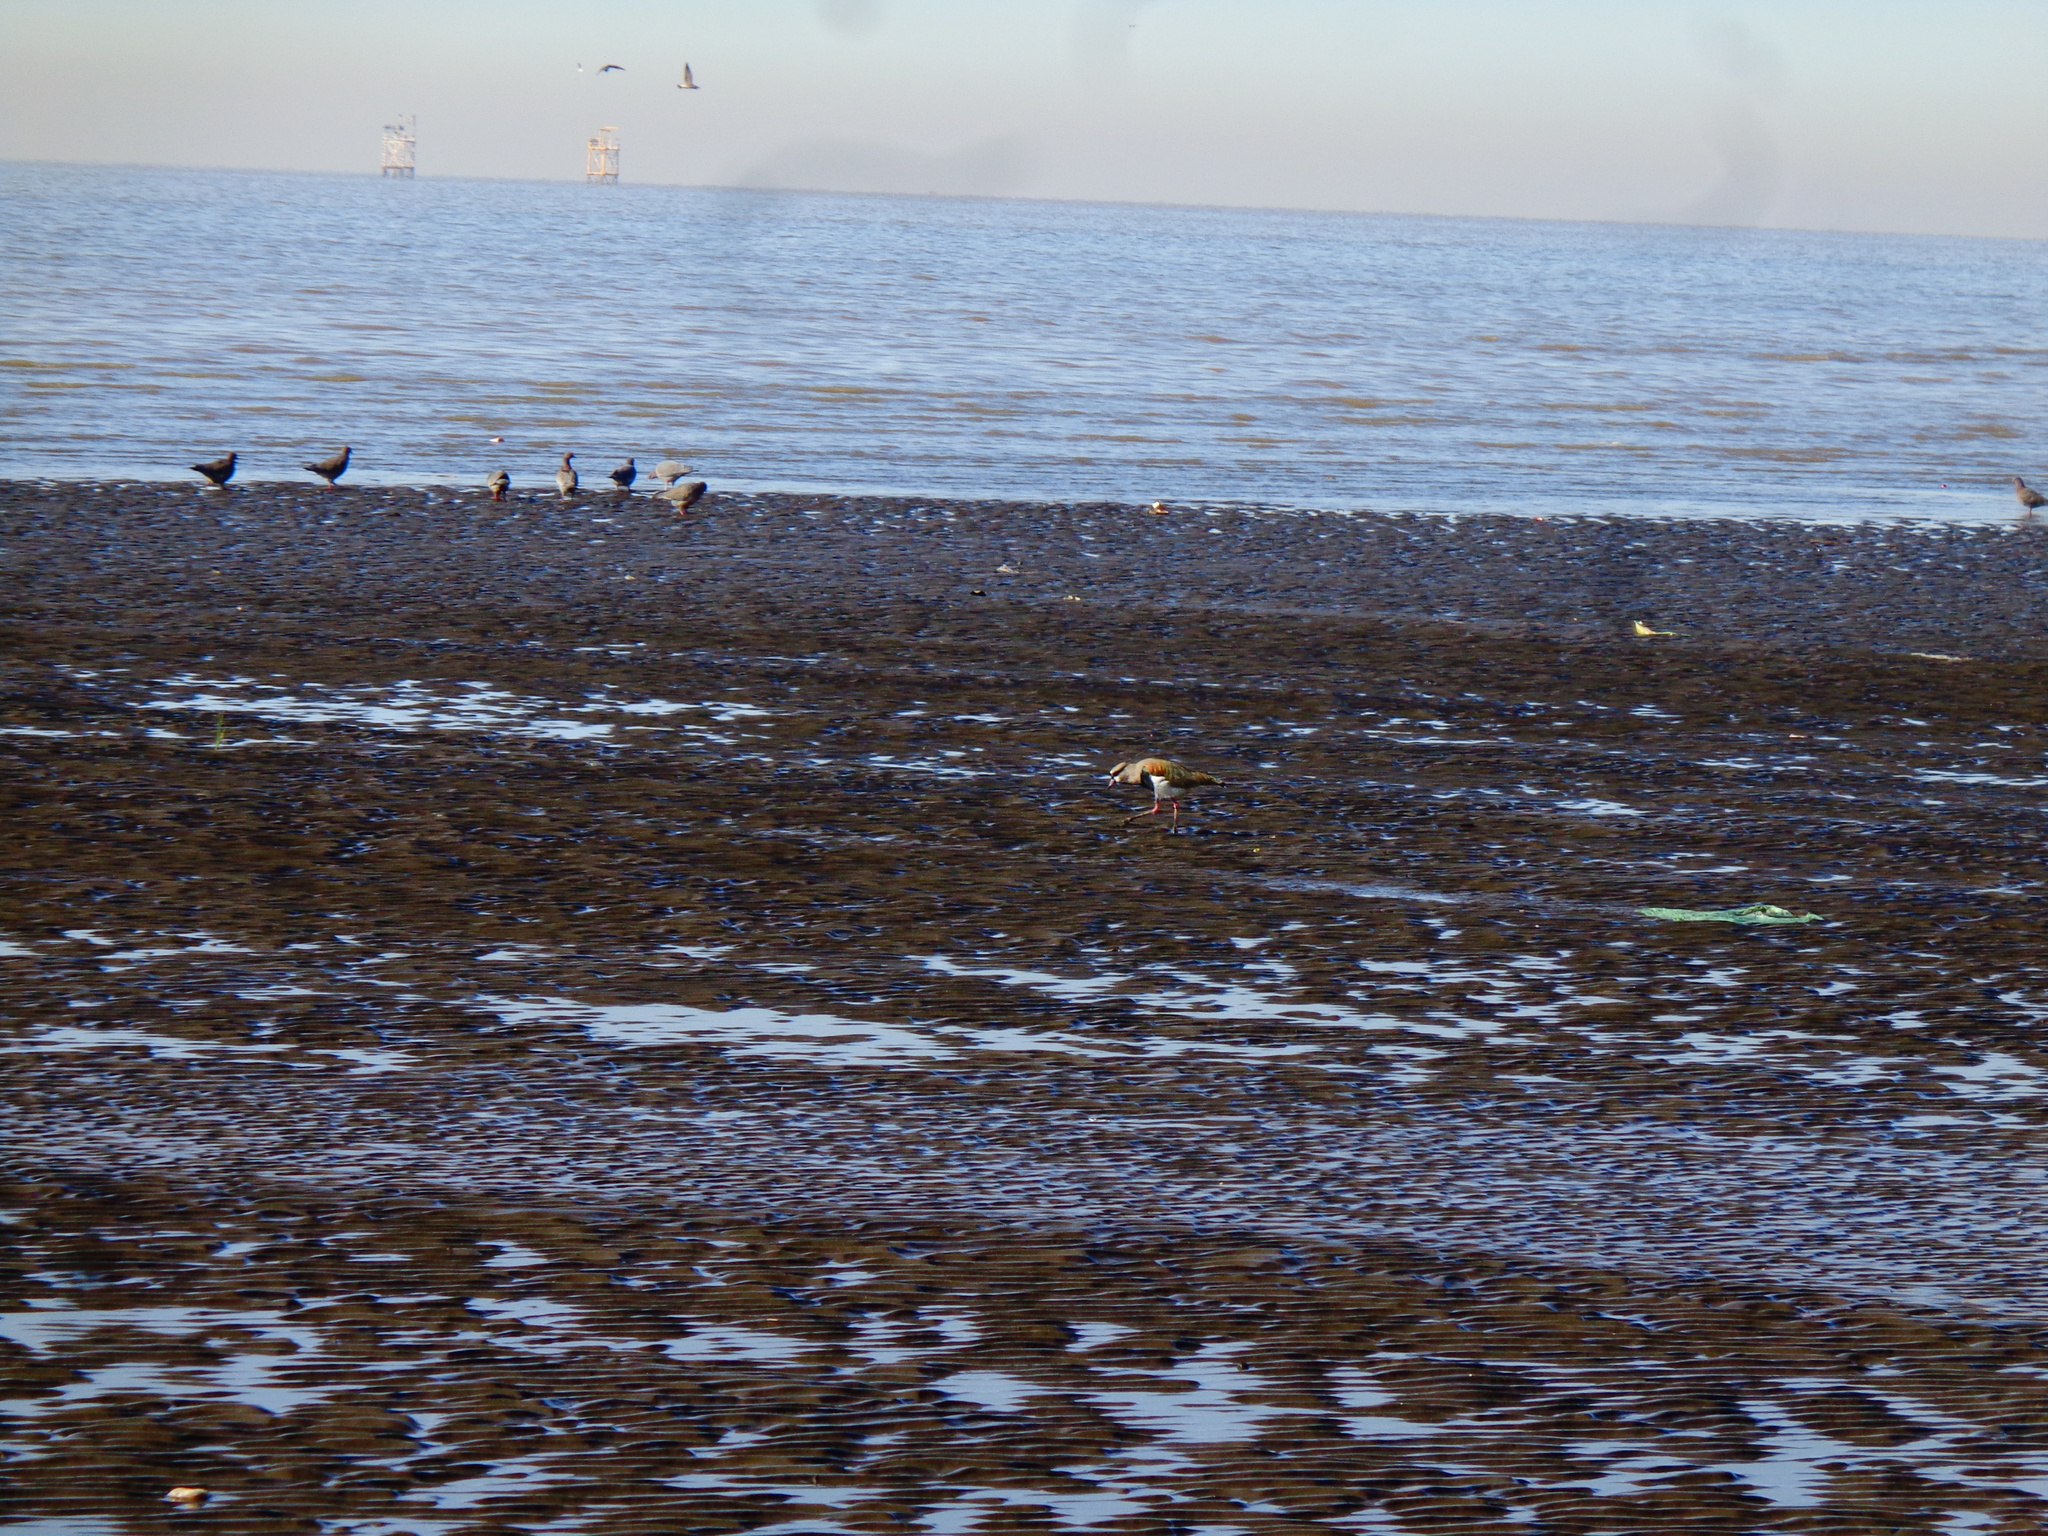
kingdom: Animalia
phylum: Chordata
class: Aves
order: Charadriiformes
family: Charadriidae
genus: Vanellus
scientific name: Vanellus chilensis
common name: Southern lapwing
